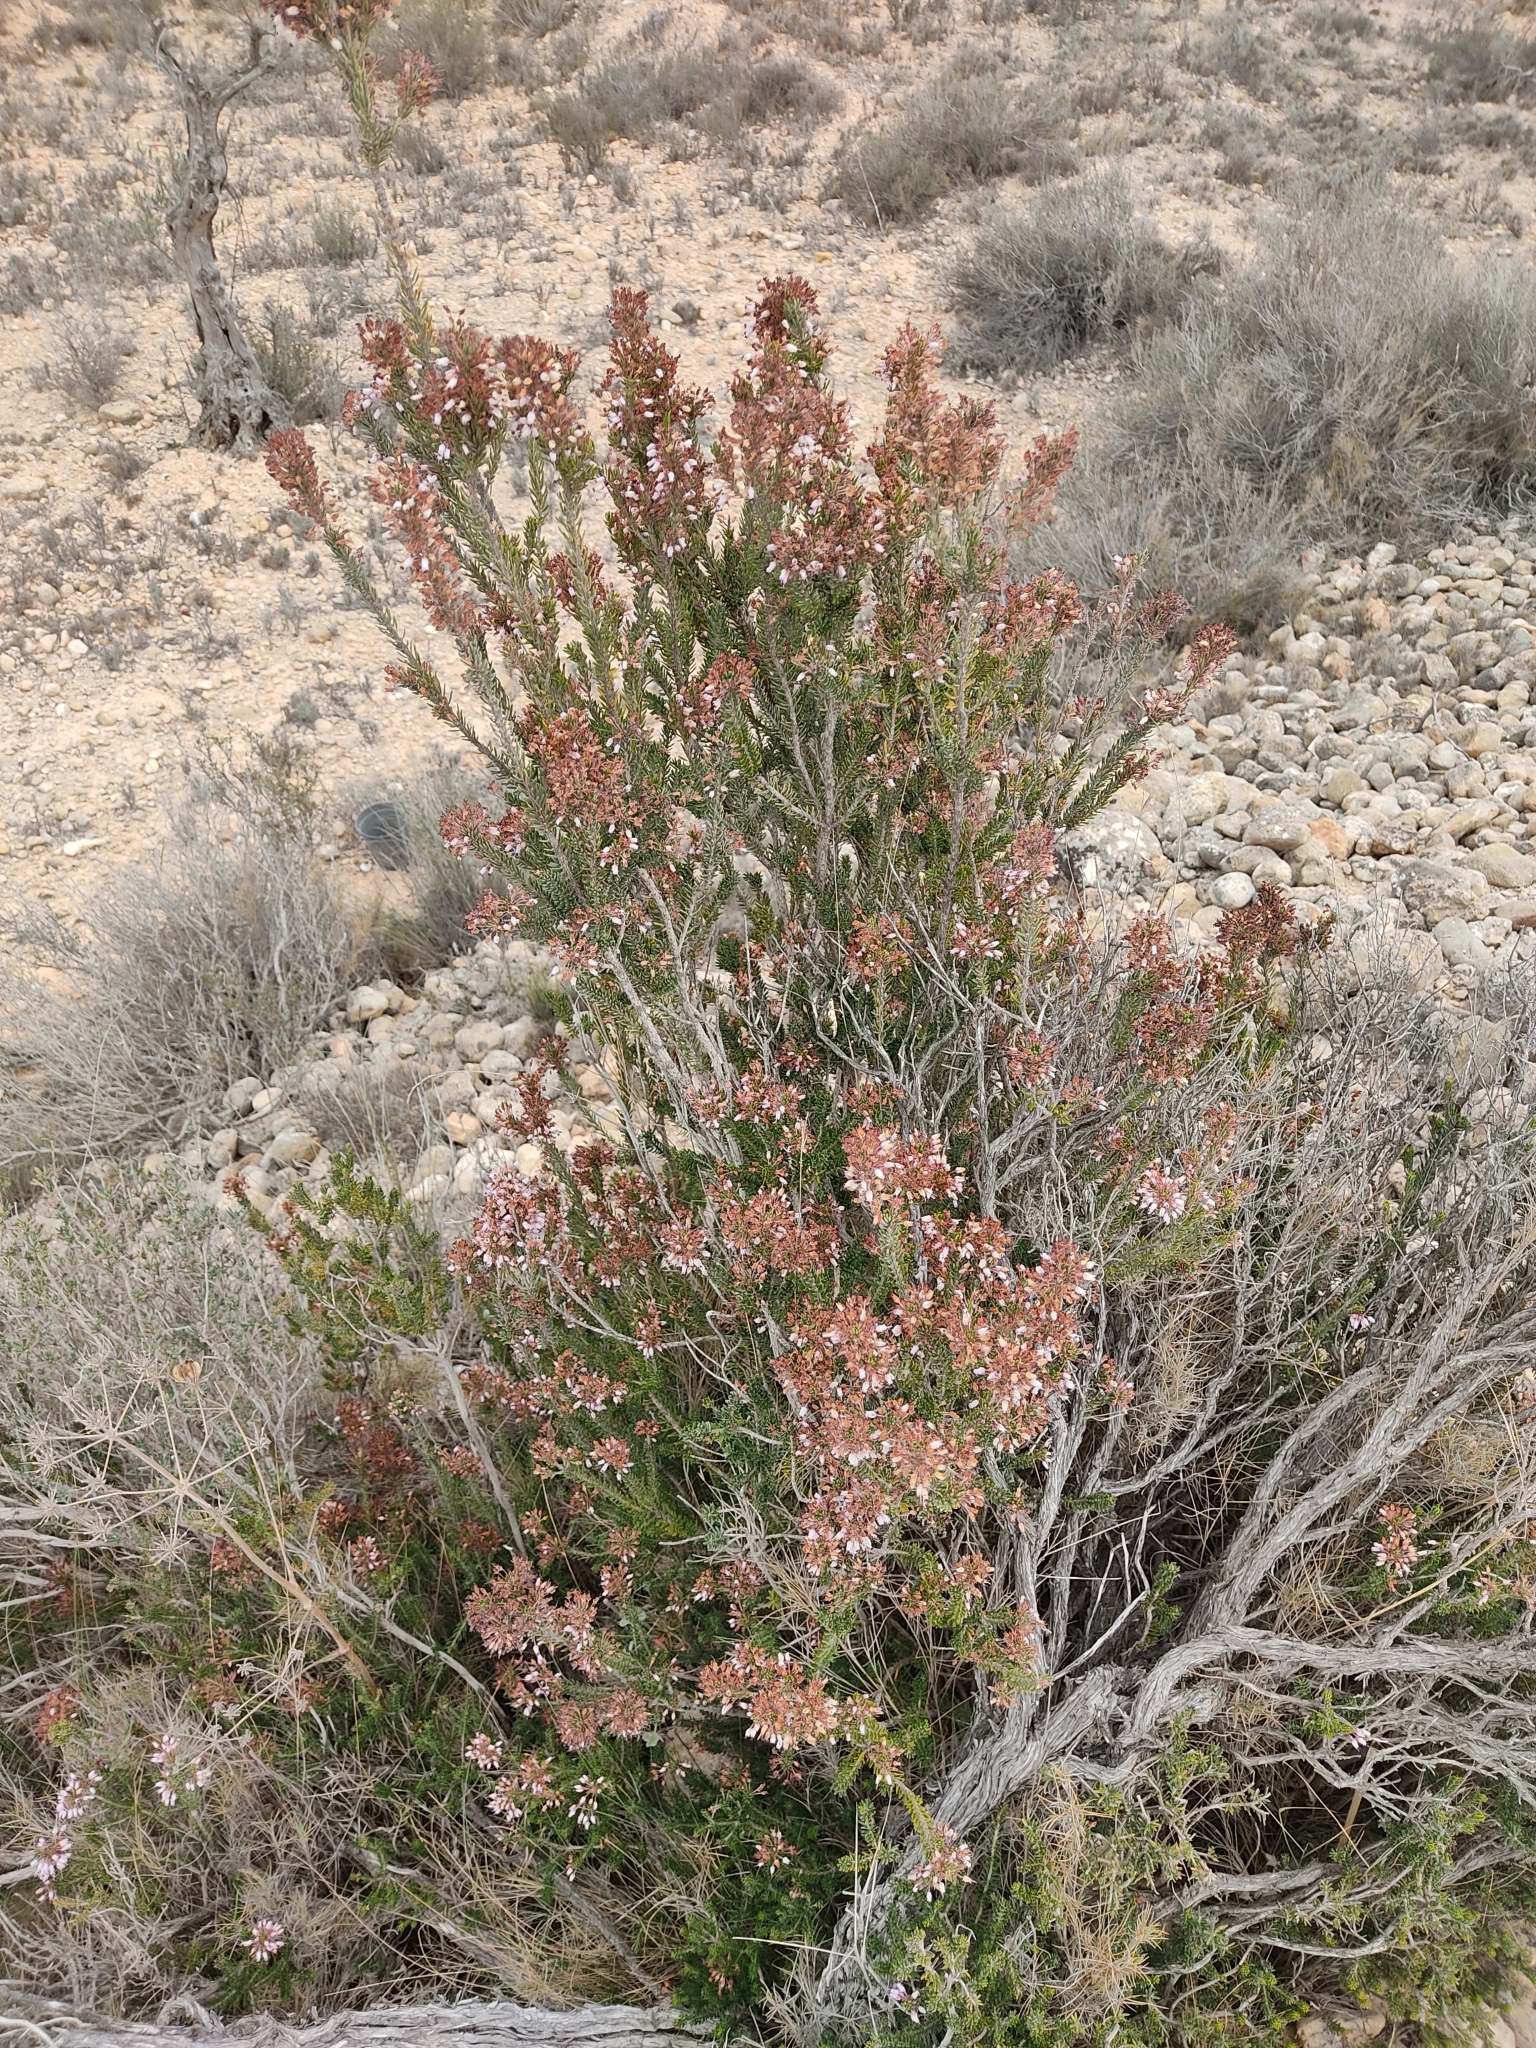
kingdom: Plantae
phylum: Tracheophyta
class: Magnoliopsida
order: Ericales
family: Ericaceae
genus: Erica
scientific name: Erica multiflora
